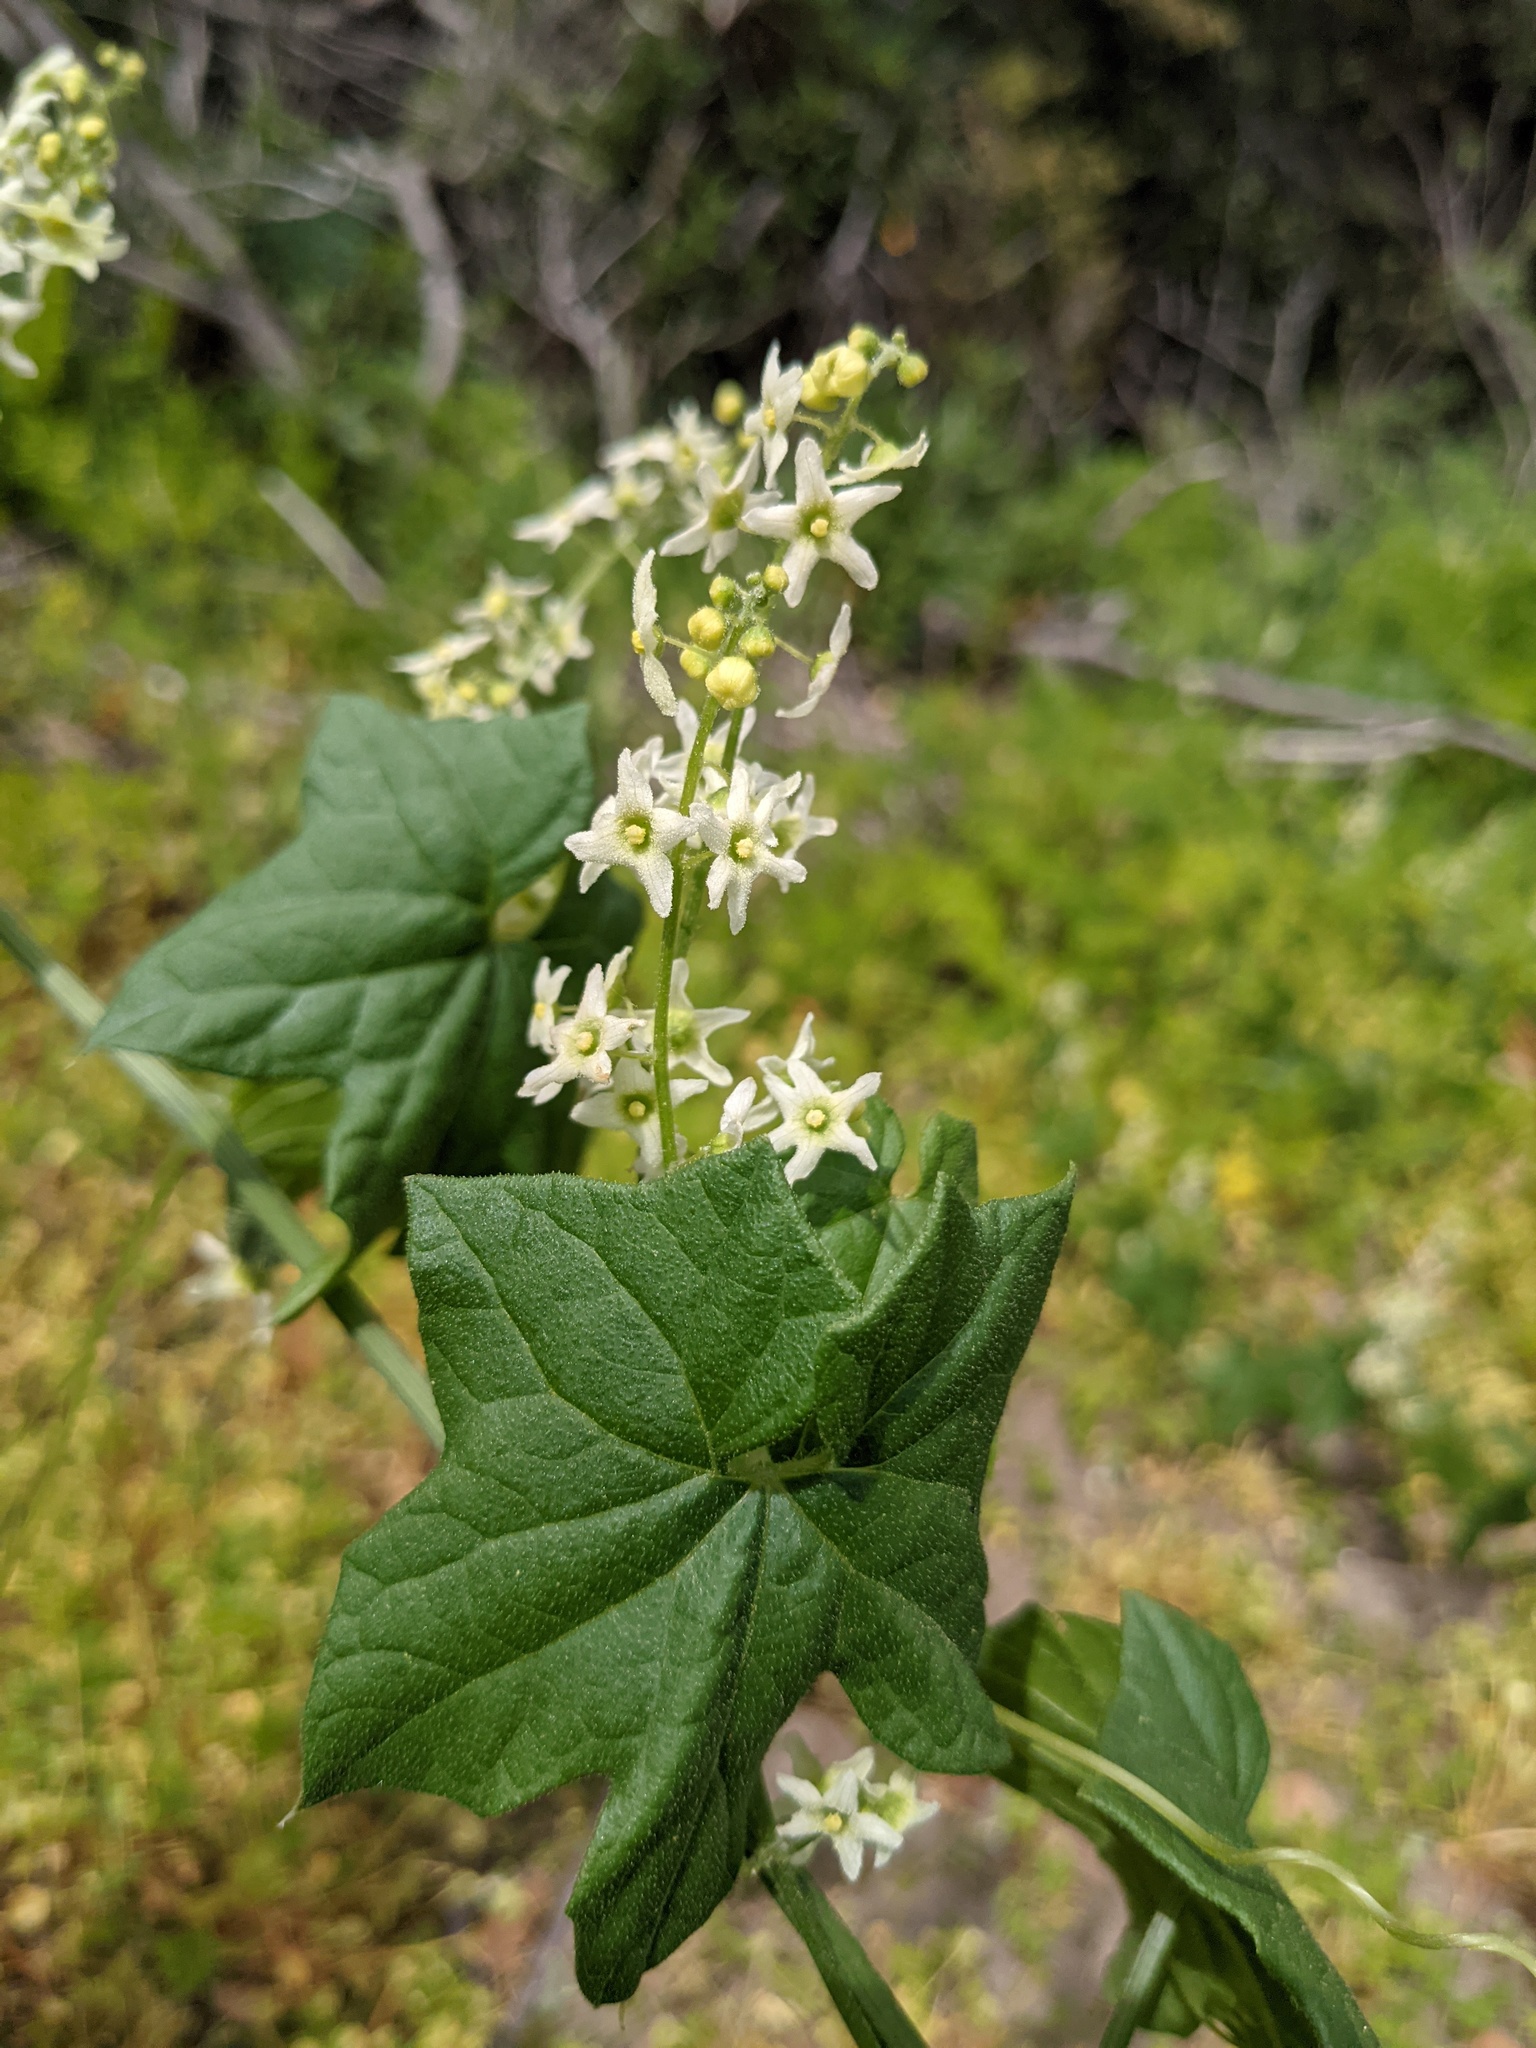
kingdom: Plantae
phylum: Tracheophyta
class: Magnoliopsida
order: Cucurbitales
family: Cucurbitaceae
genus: Marah
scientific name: Marah fabacea
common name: California manroot
